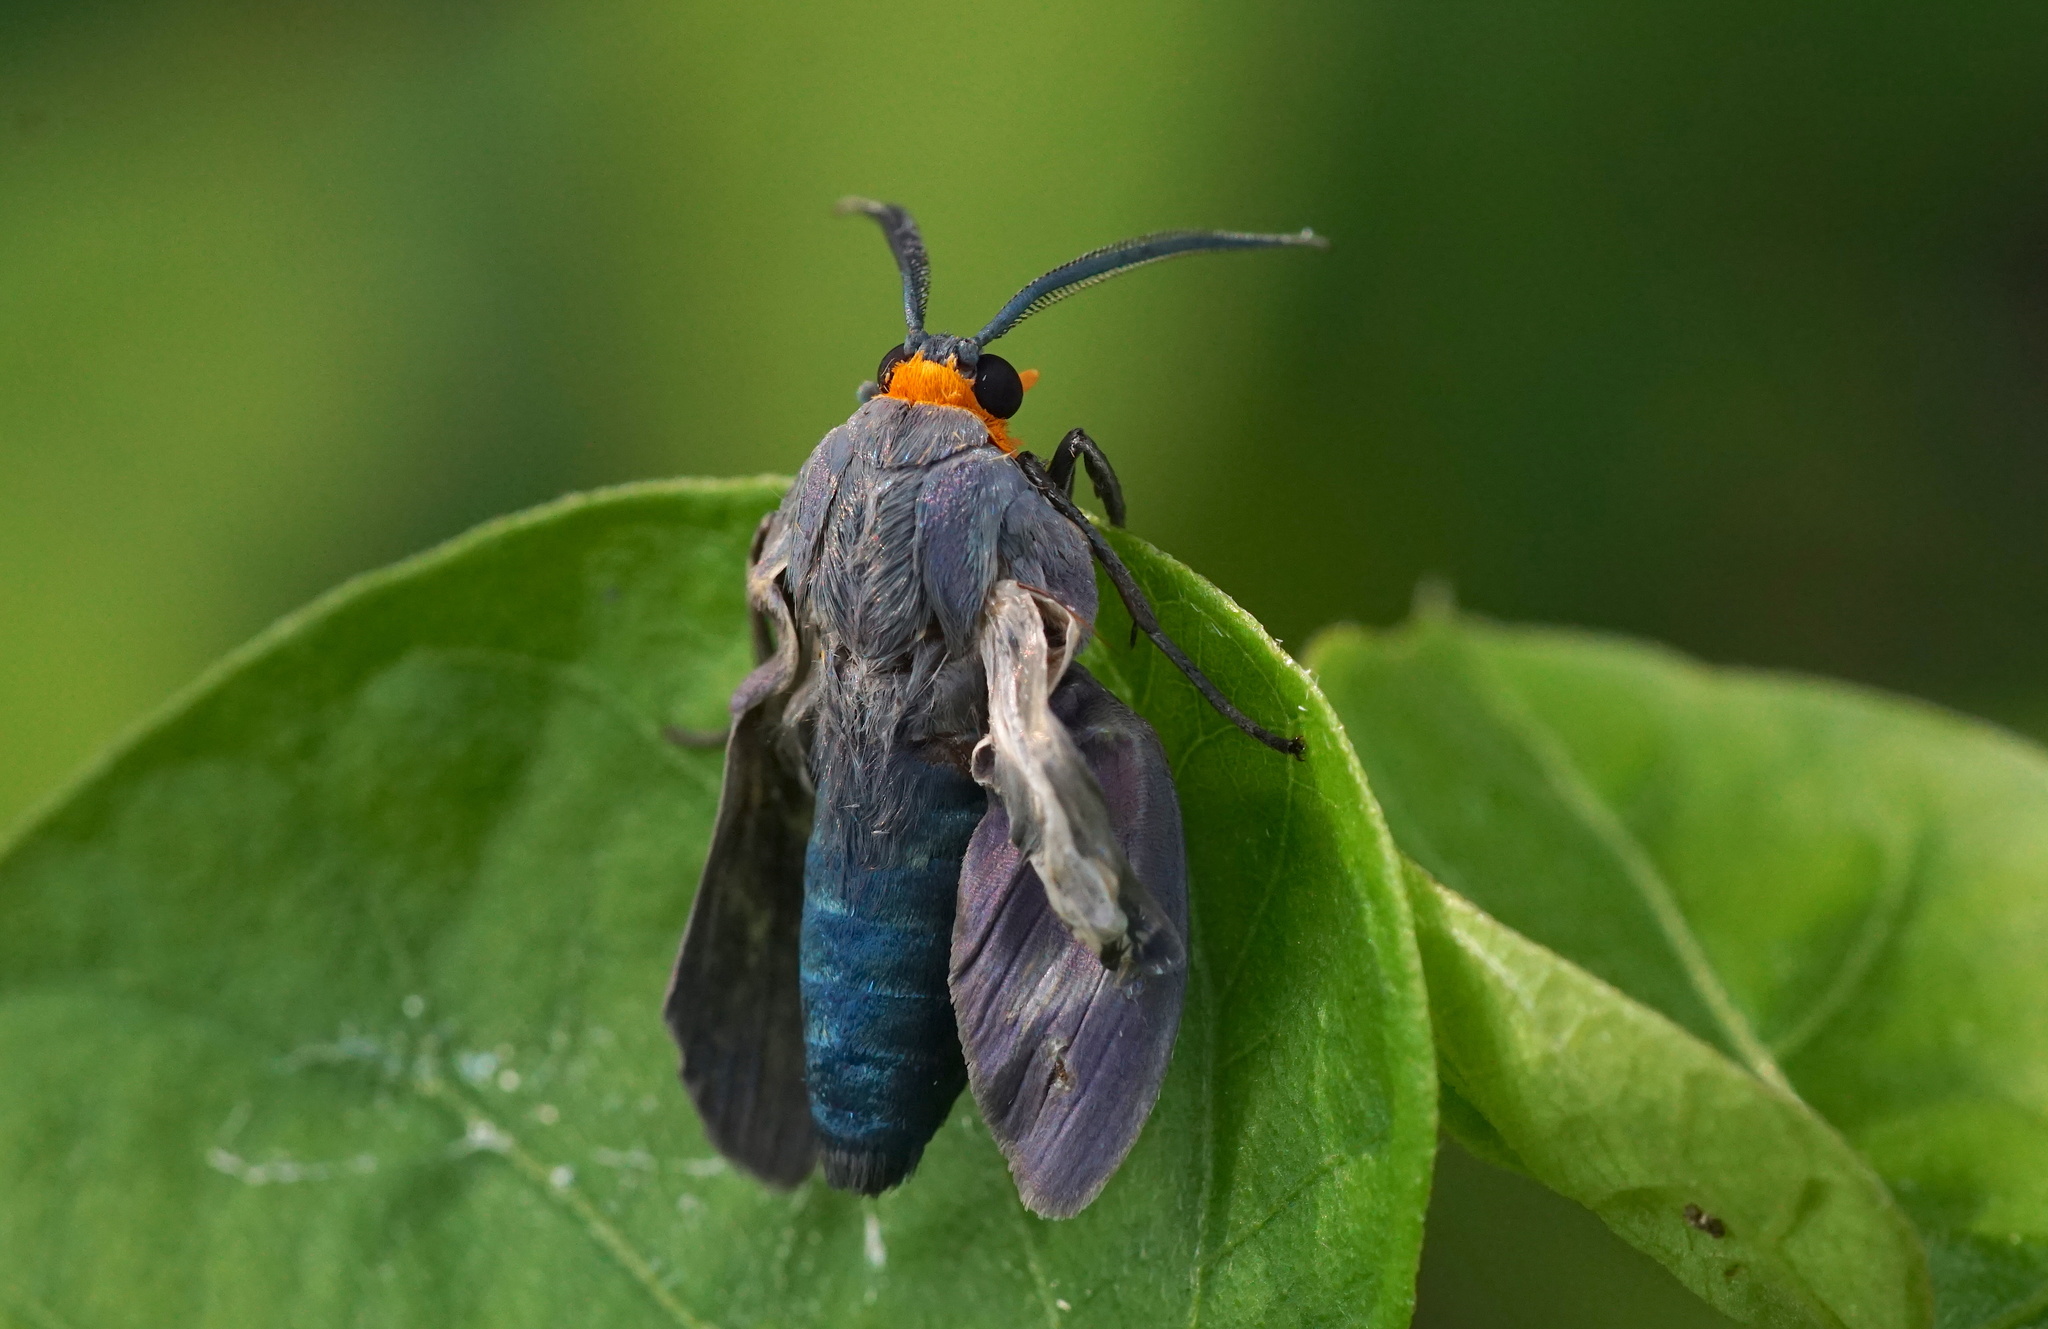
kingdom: Animalia
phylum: Arthropoda
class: Insecta
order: Lepidoptera
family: Erebidae
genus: Lymire
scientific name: Lymire edwardsii
